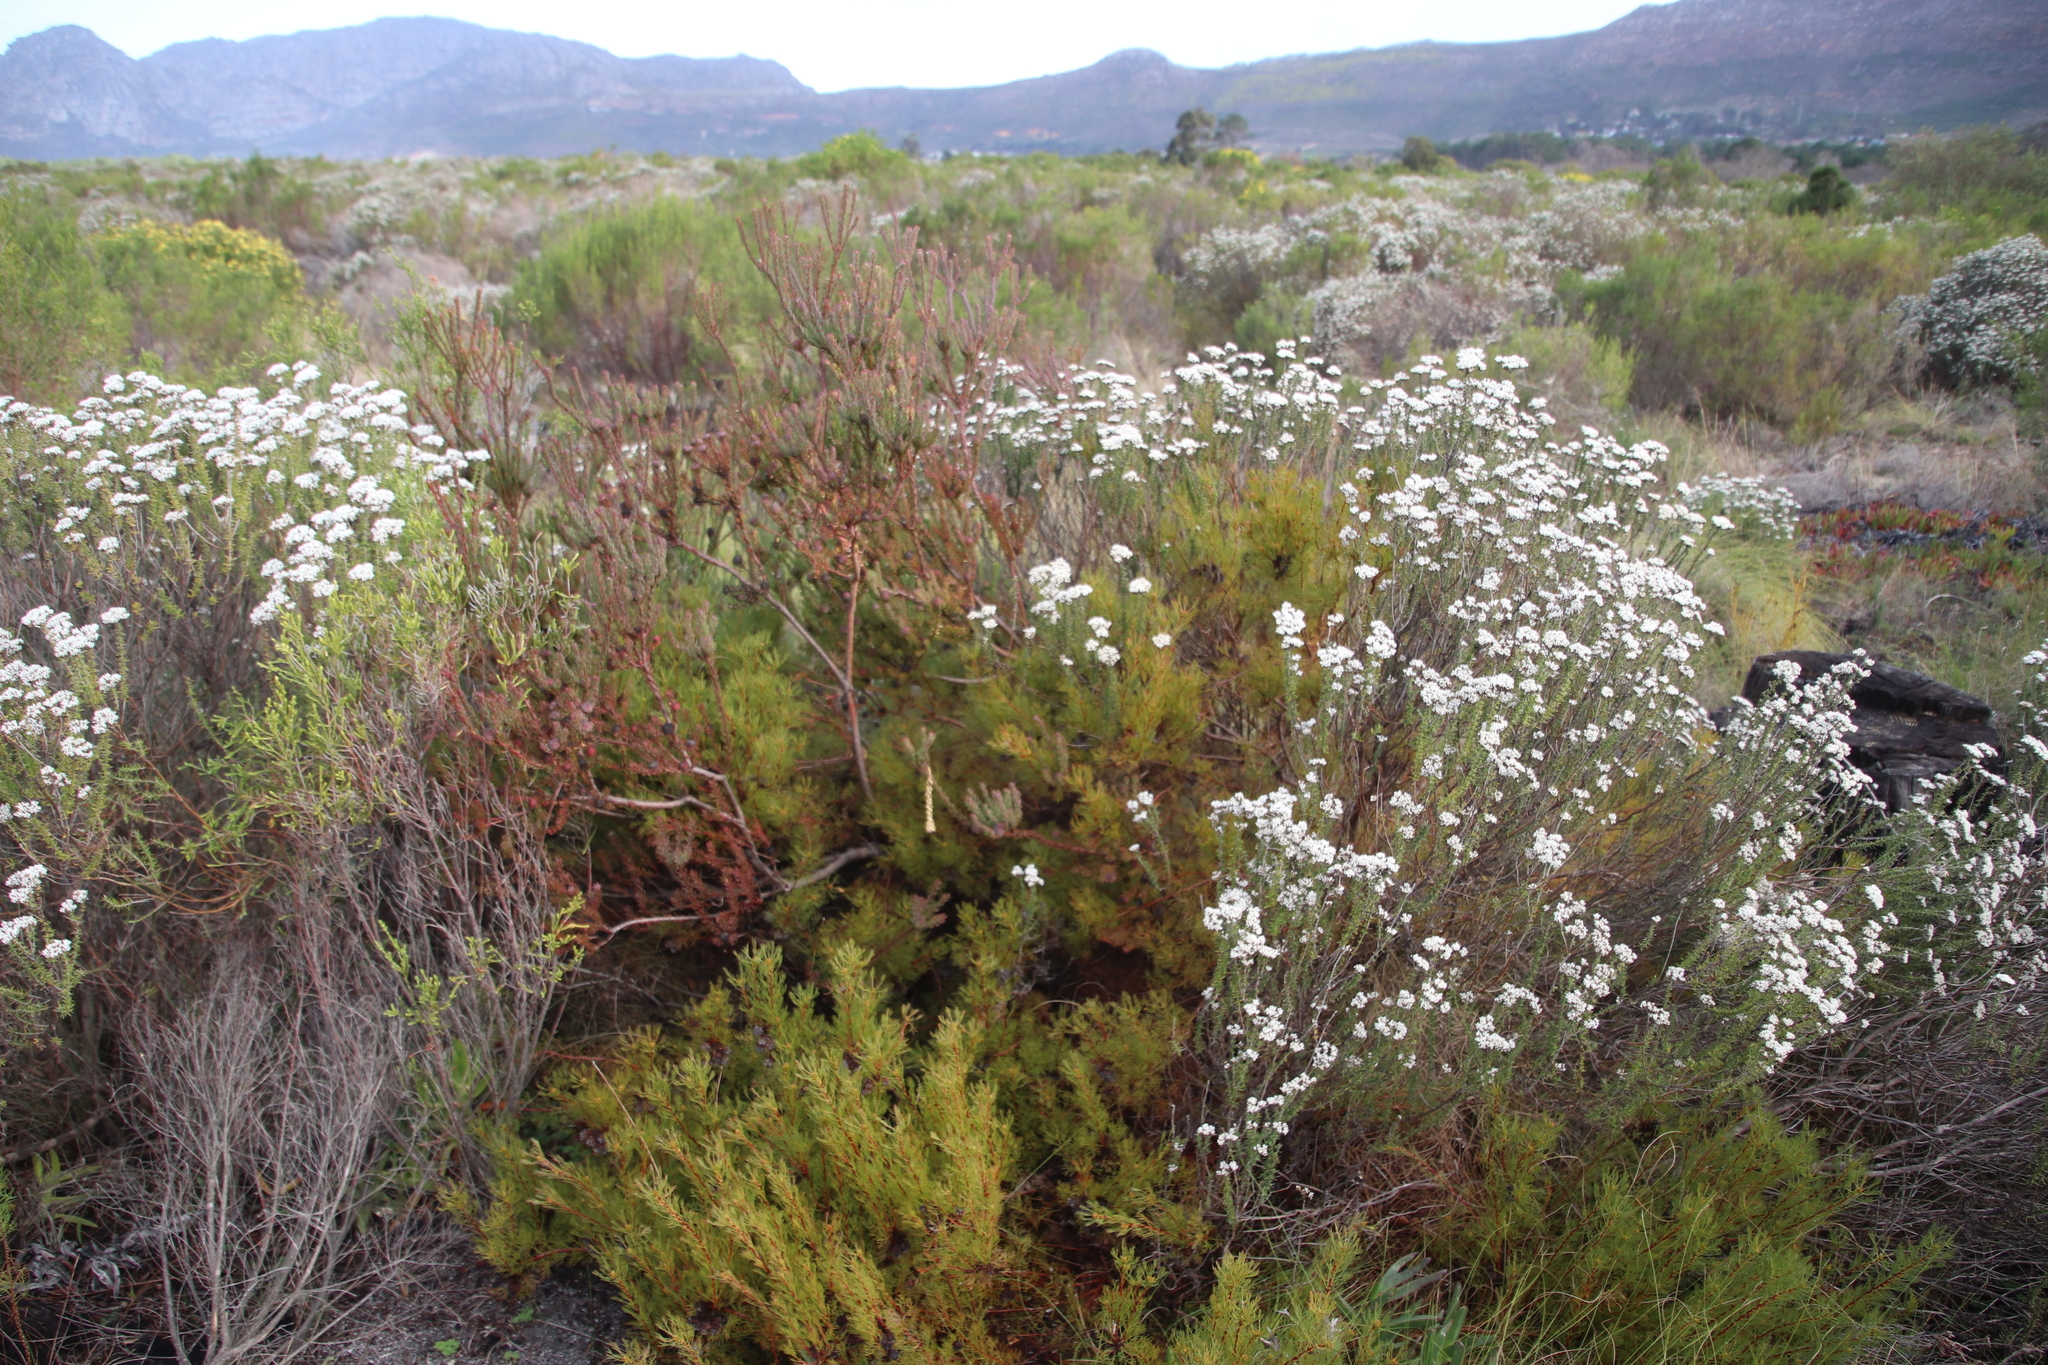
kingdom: Plantae
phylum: Tracheophyta
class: Magnoliopsida
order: Proteales
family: Proteaceae
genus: Serruria
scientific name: Serruria
